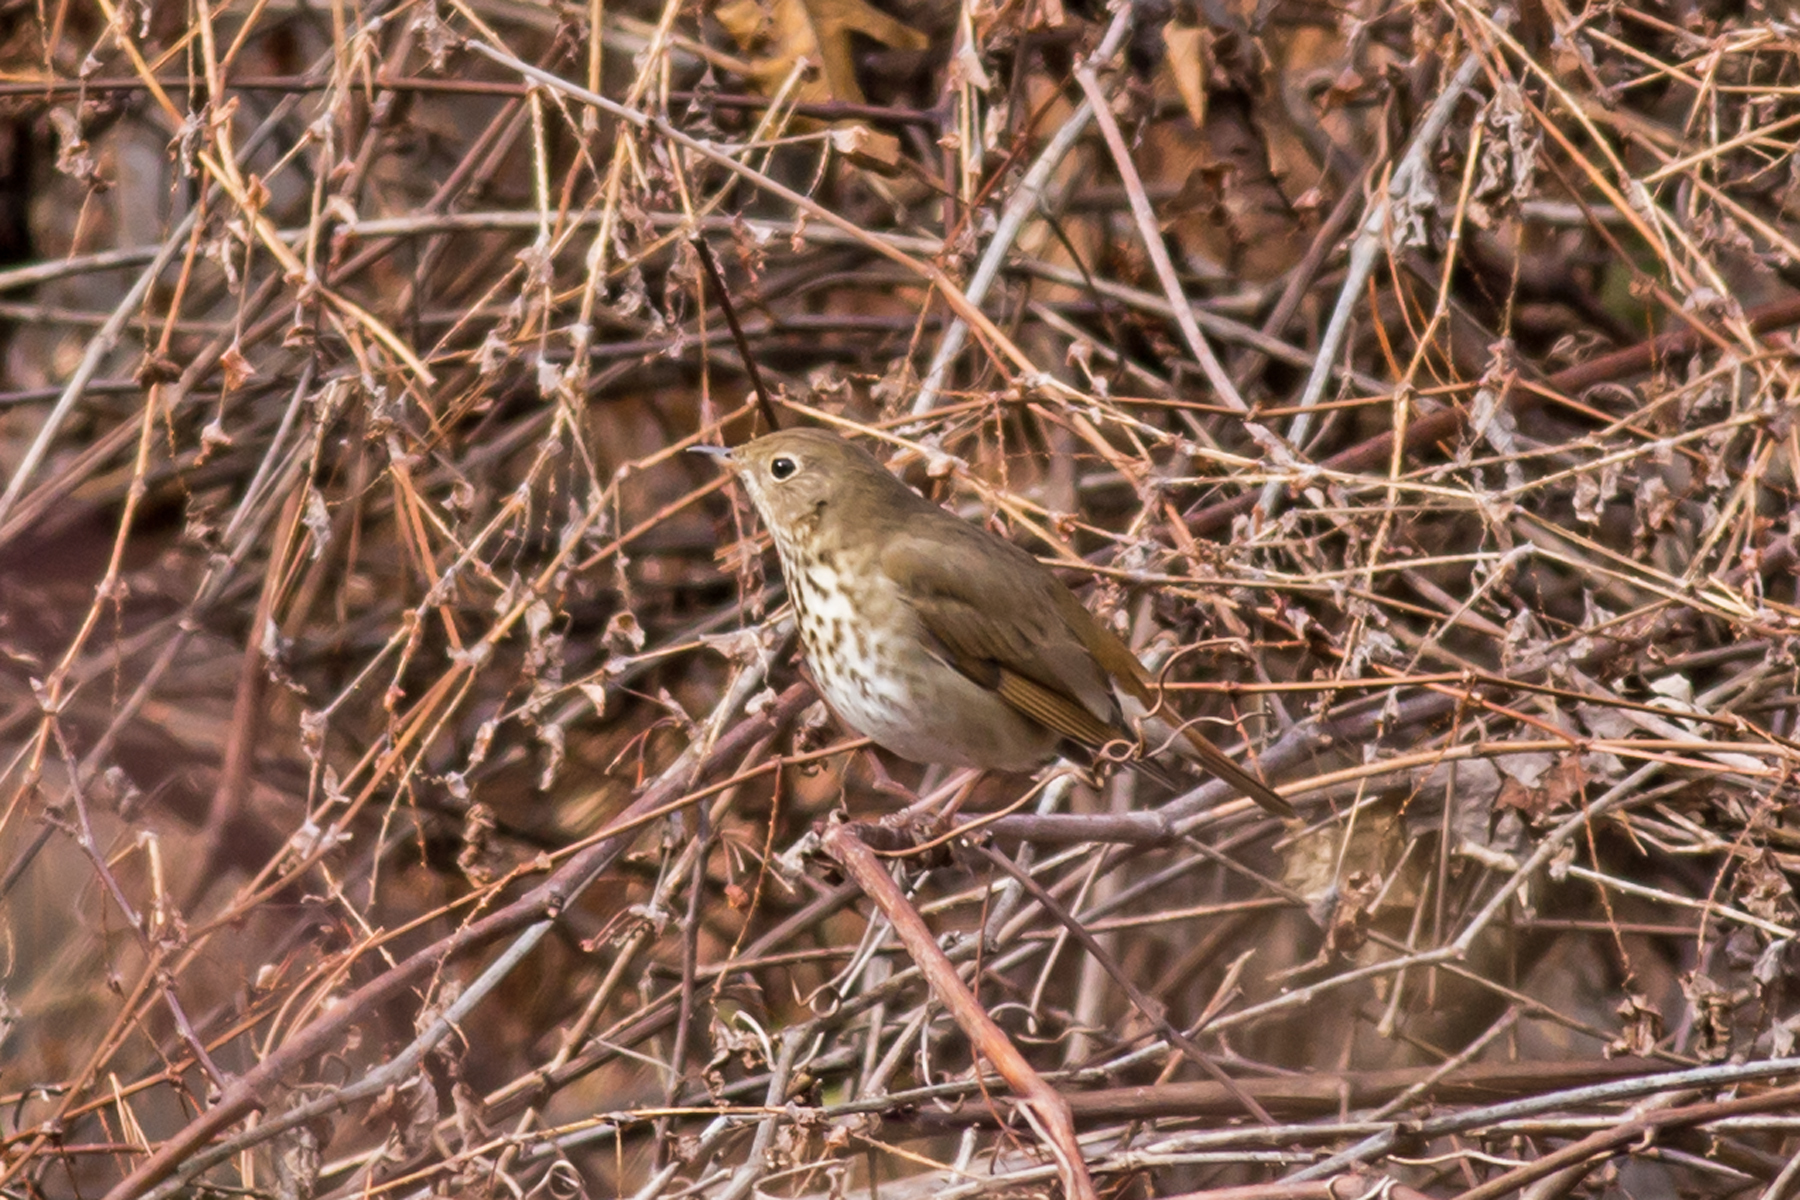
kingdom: Animalia
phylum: Chordata
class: Aves
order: Passeriformes
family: Turdidae
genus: Catharus
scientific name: Catharus guttatus
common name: Hermit thrush
